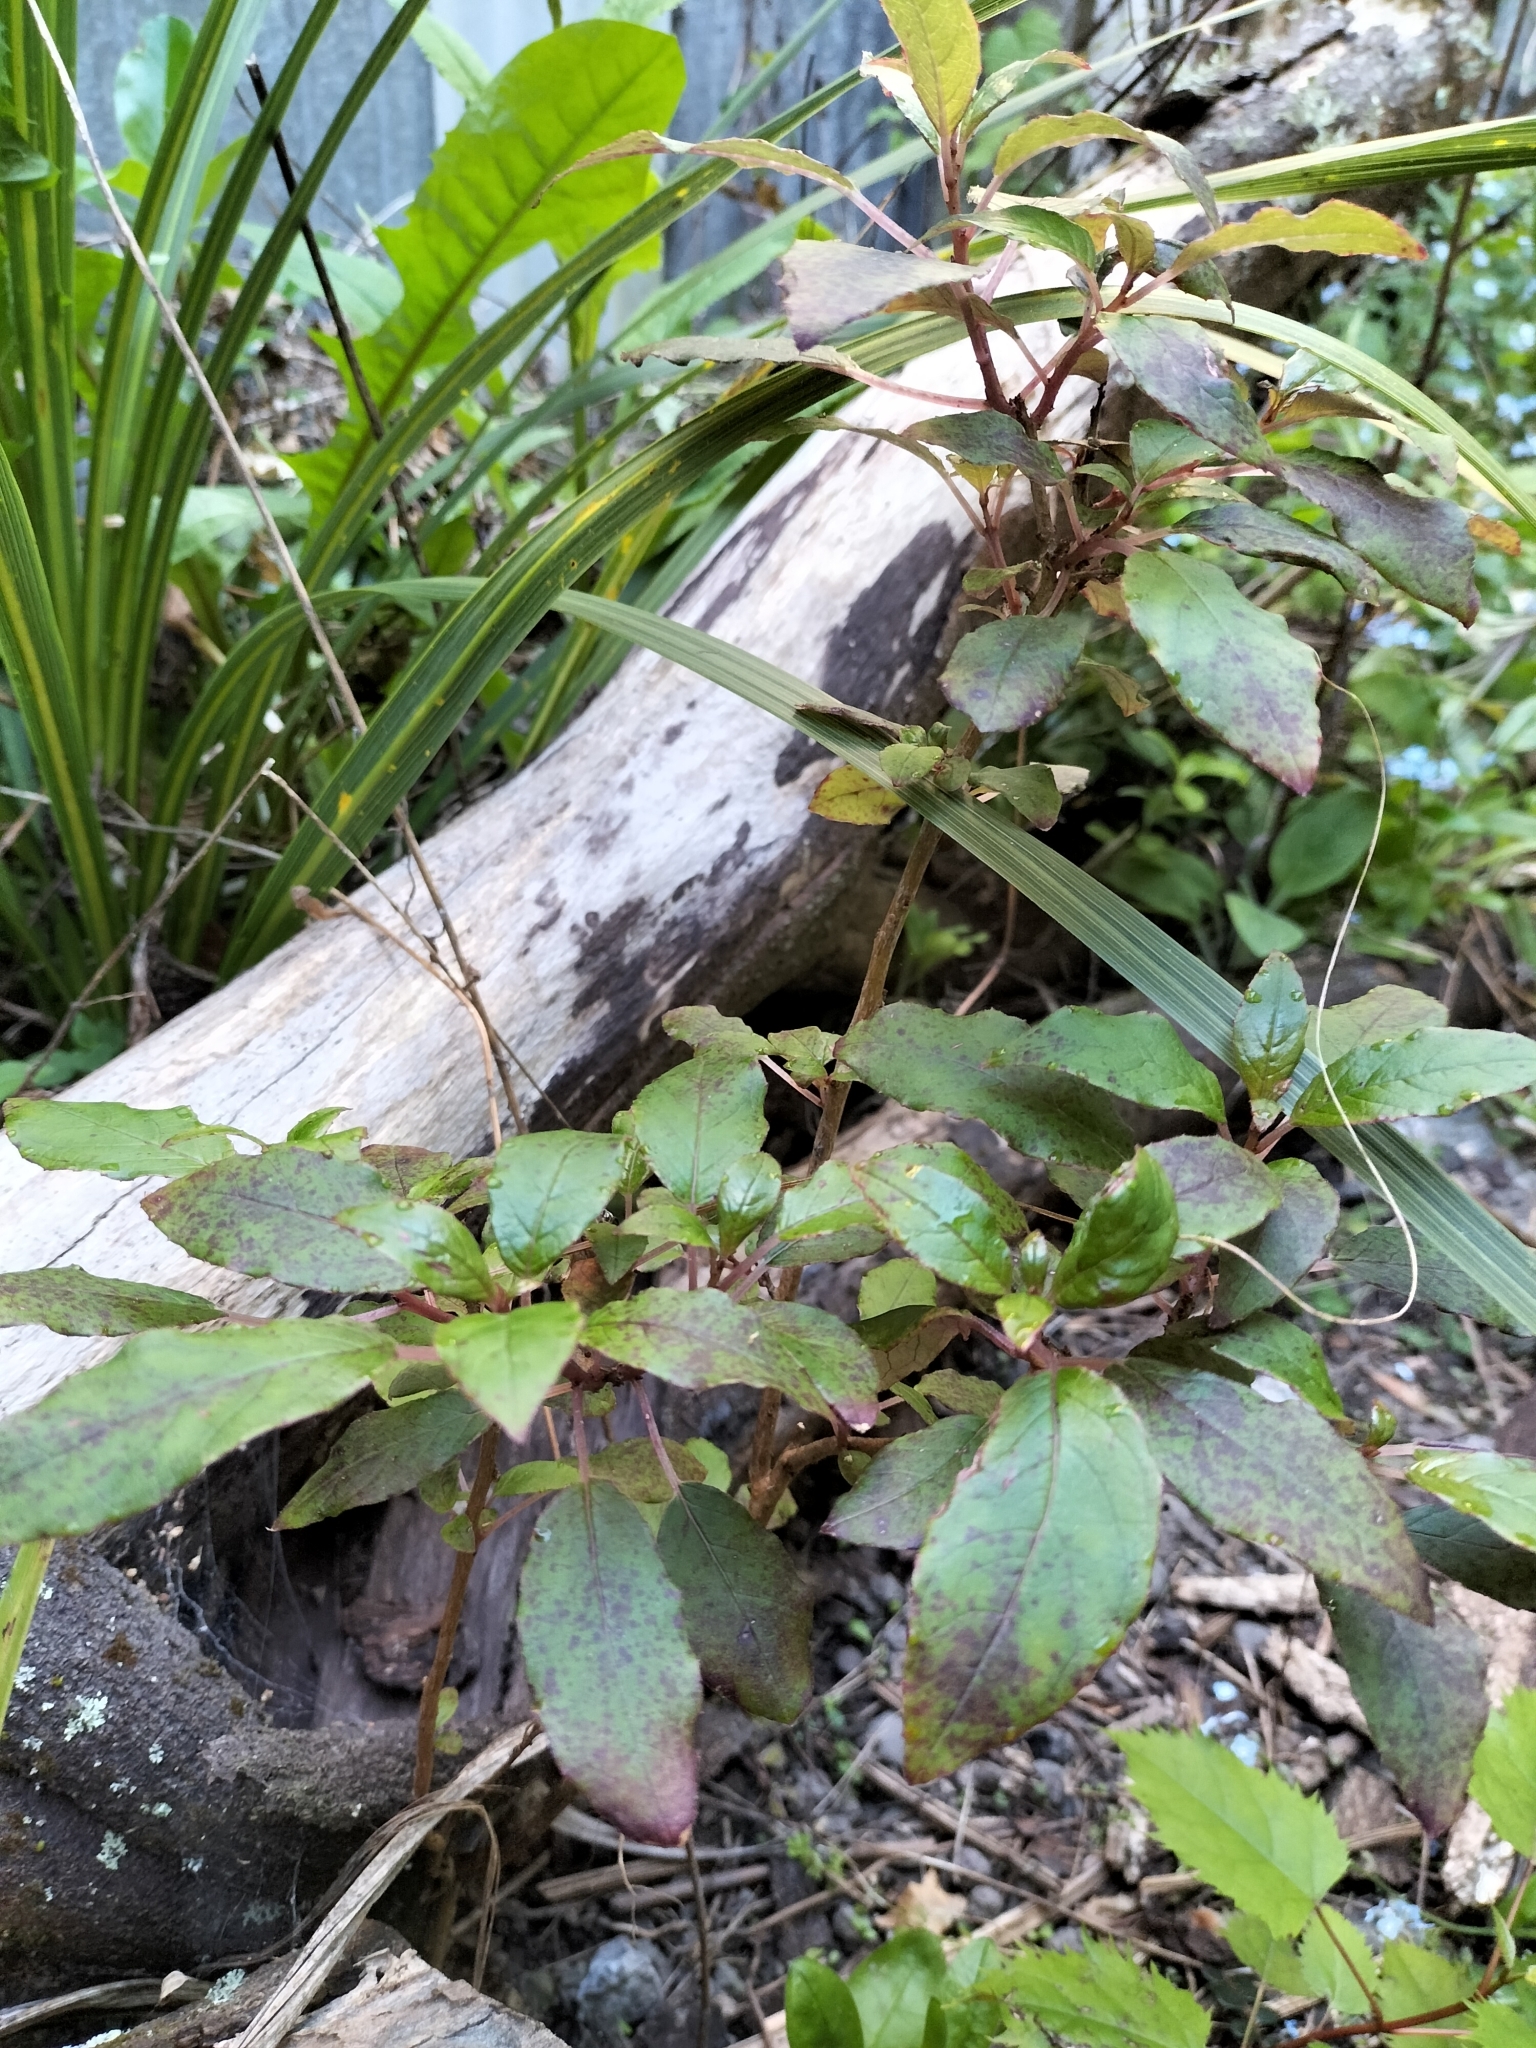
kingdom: Plantae
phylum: Tracheophyta
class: Magnoliopsida
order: Myrtales
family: Onagraceae
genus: Fuchsia
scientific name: Fuchsia excorticata
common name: Tree fuchsia
